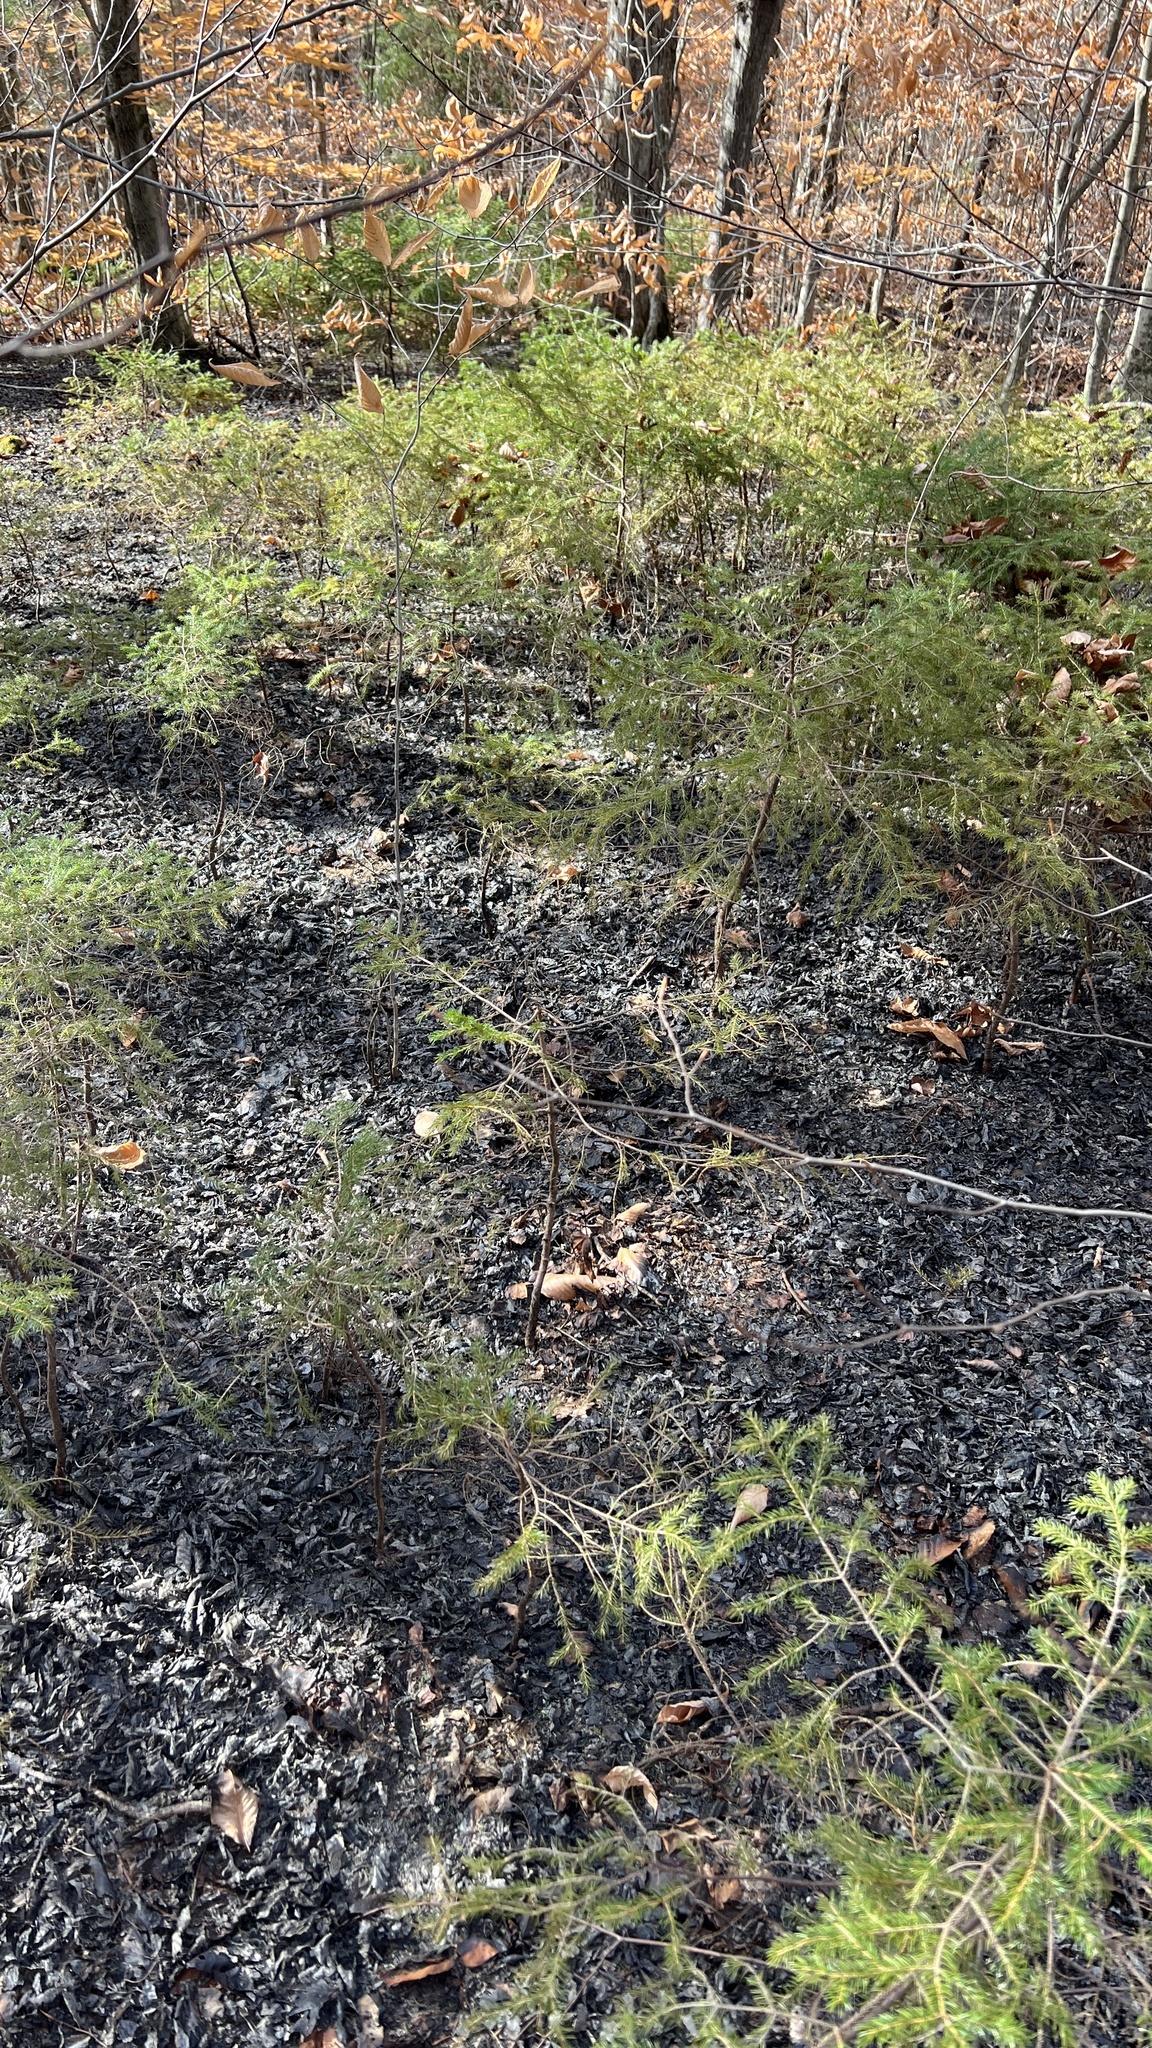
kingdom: Plantae
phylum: Tracheophyta
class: Pinopsida
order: Pinales
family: Pinaceae
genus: Picea
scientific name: Picea rubens
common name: Red spruce
